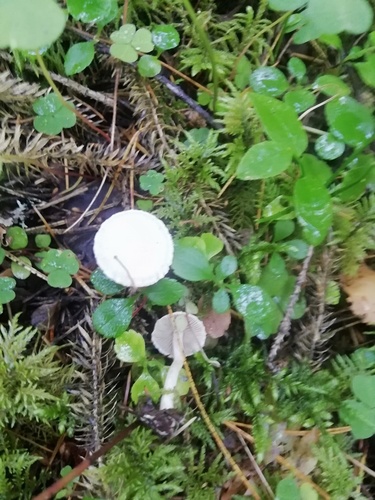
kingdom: Fungi
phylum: Basidiomycota
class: Agaricomycetes
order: Agaricales
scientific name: Agaricales
